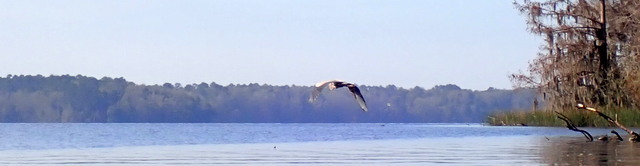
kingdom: Animalia
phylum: Chordata
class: Aves
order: Pelecaniformes
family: Ardeidae
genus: Ardea
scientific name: Ardea herodias
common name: Great blue heron
